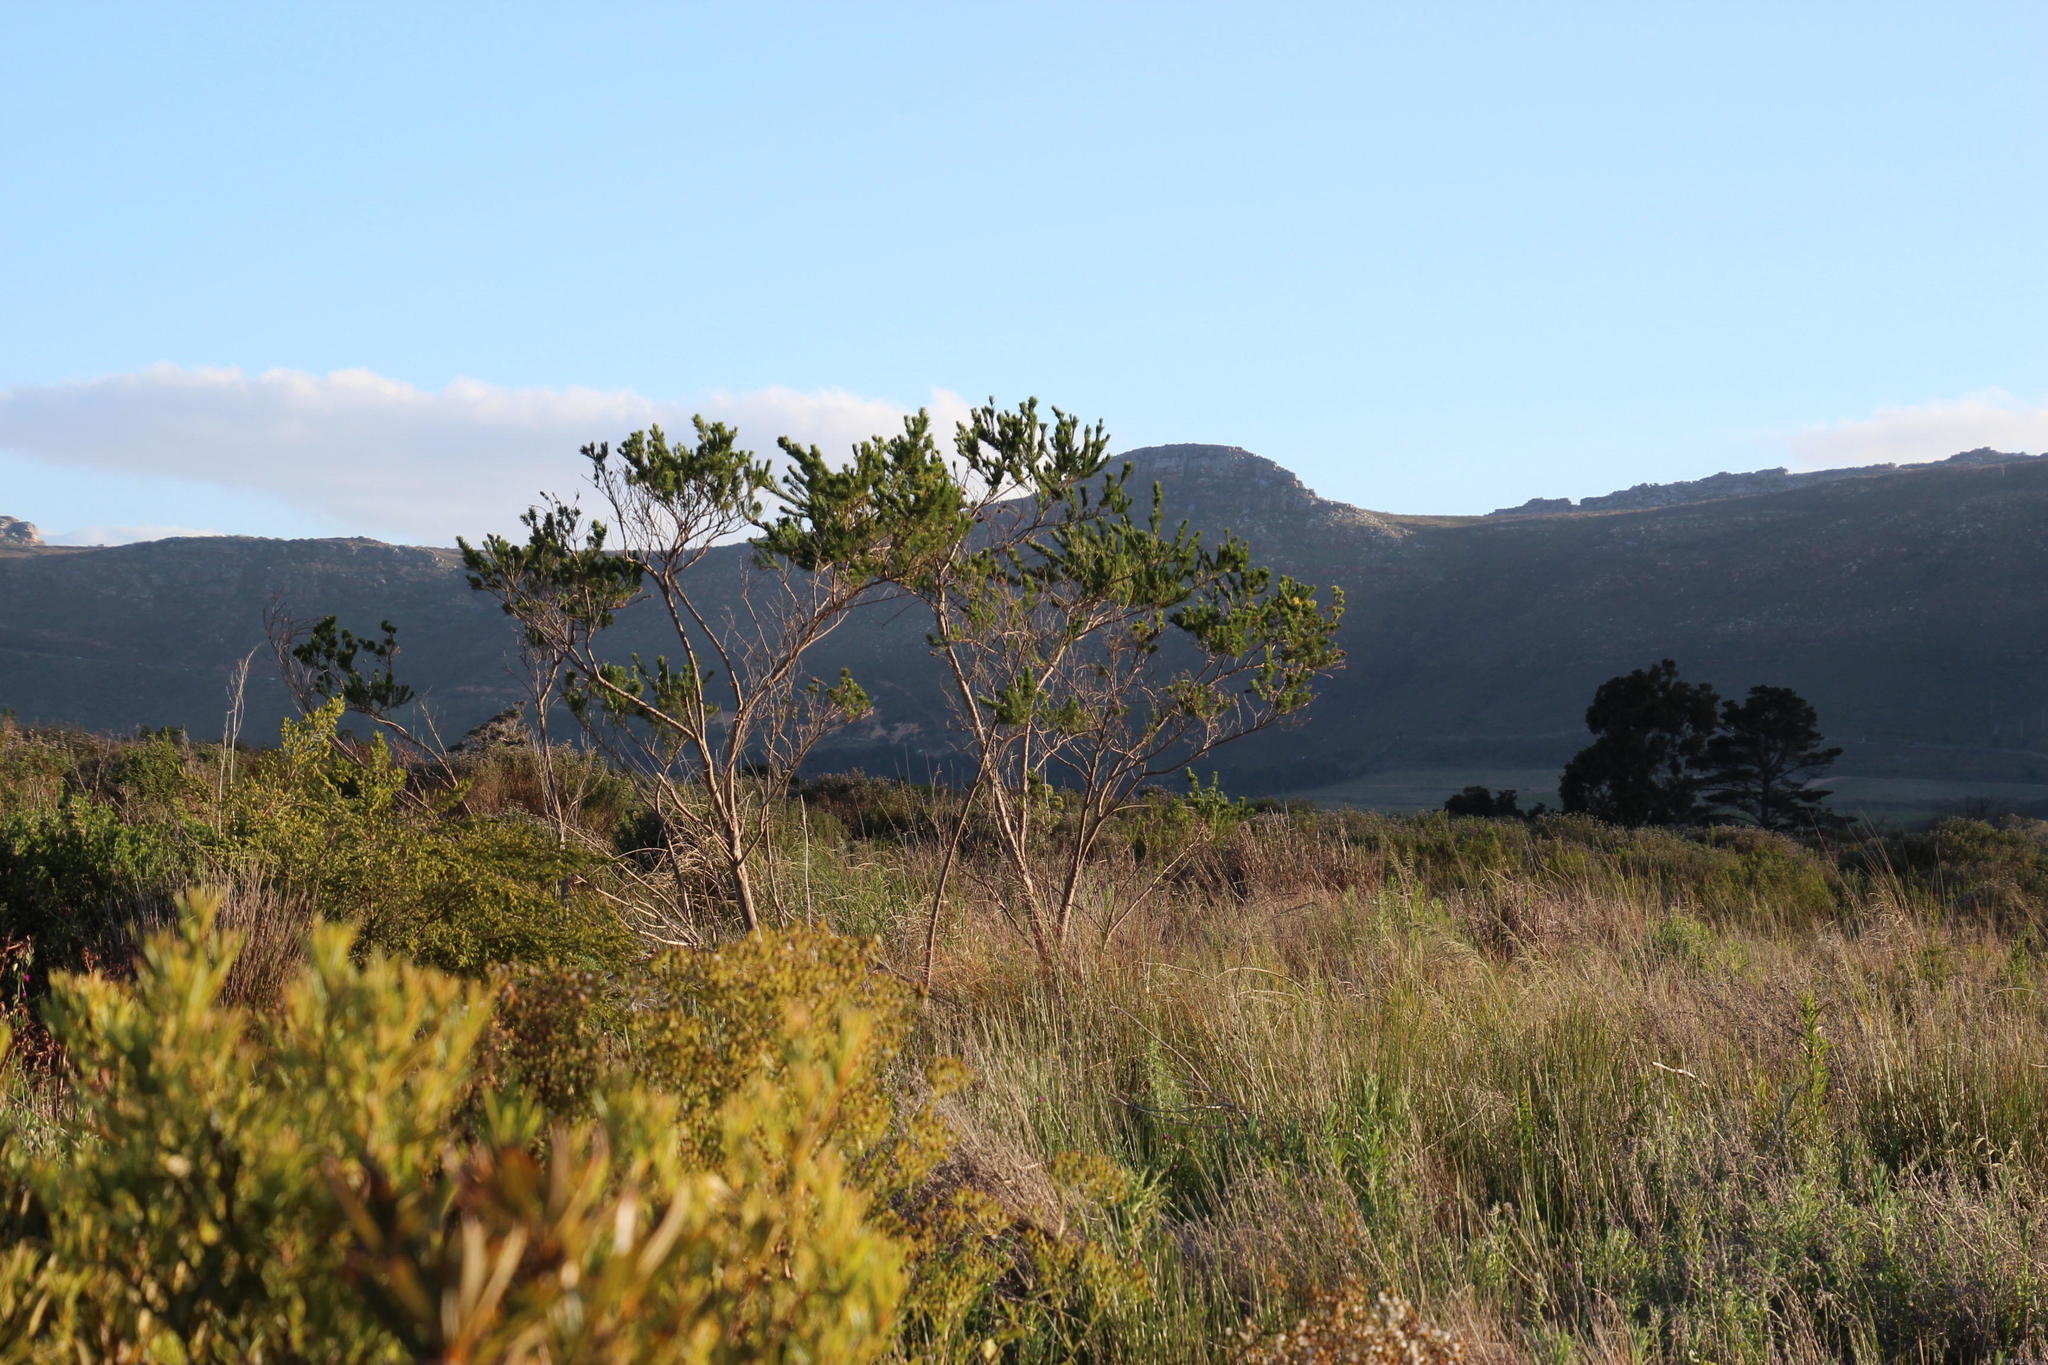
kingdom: Plantae
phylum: Tracheophyta
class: Magnoliopsida
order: Fabales
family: Fabaceae
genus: Psoralea
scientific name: Psoralea pinnata
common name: African scurfpea
